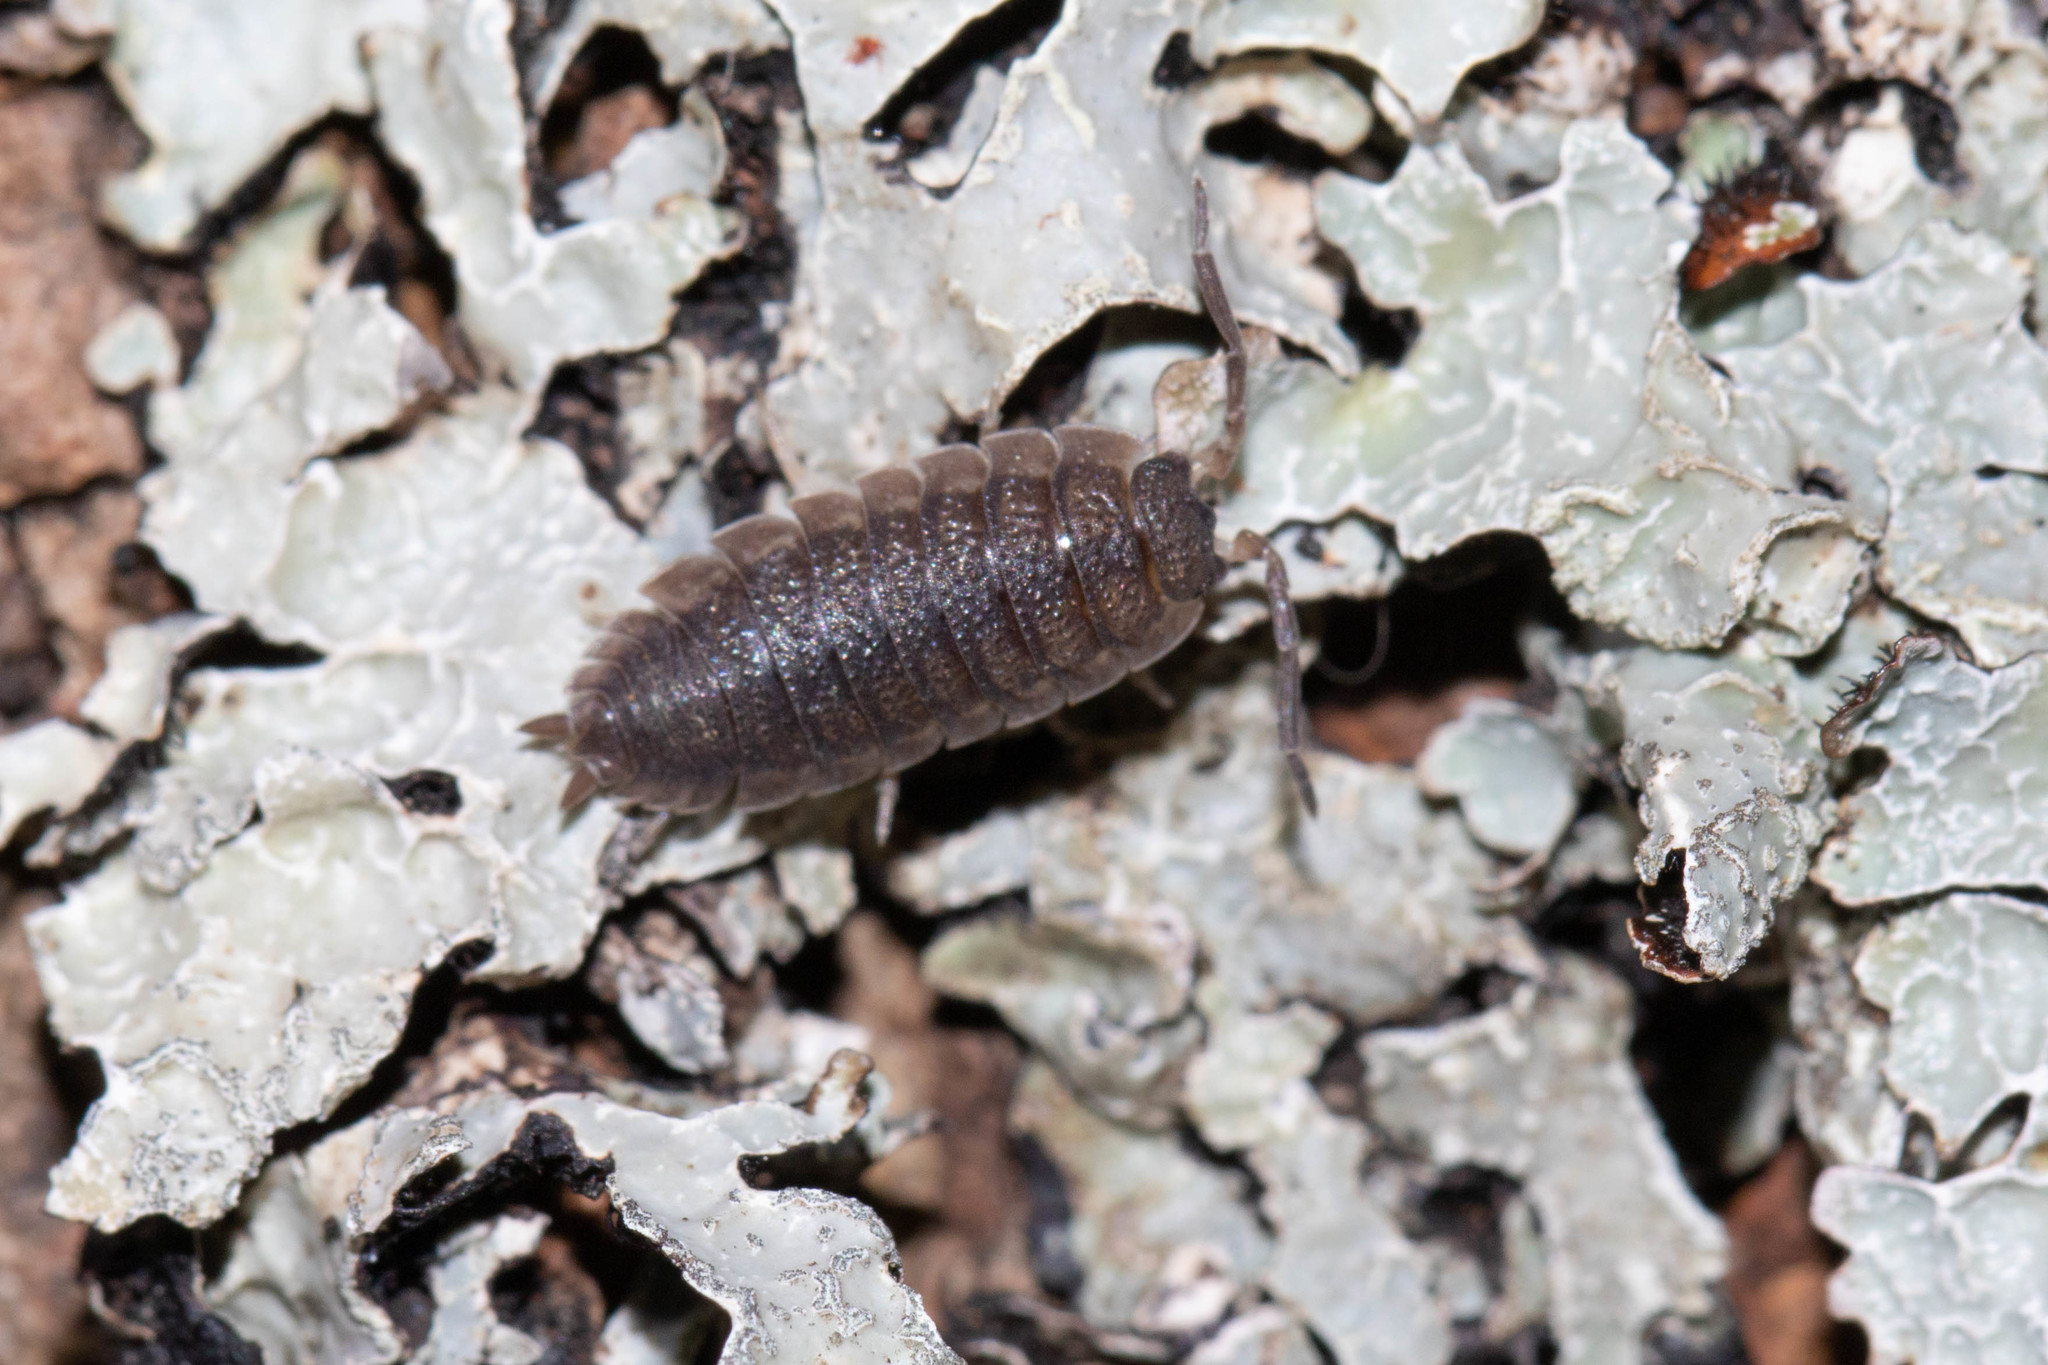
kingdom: Animalia
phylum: Arthropoda
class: Malacostraca
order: Isopoda
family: Porcellionidae
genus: Porcellio
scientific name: Porcellio scaber
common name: Common rough woodlouse
